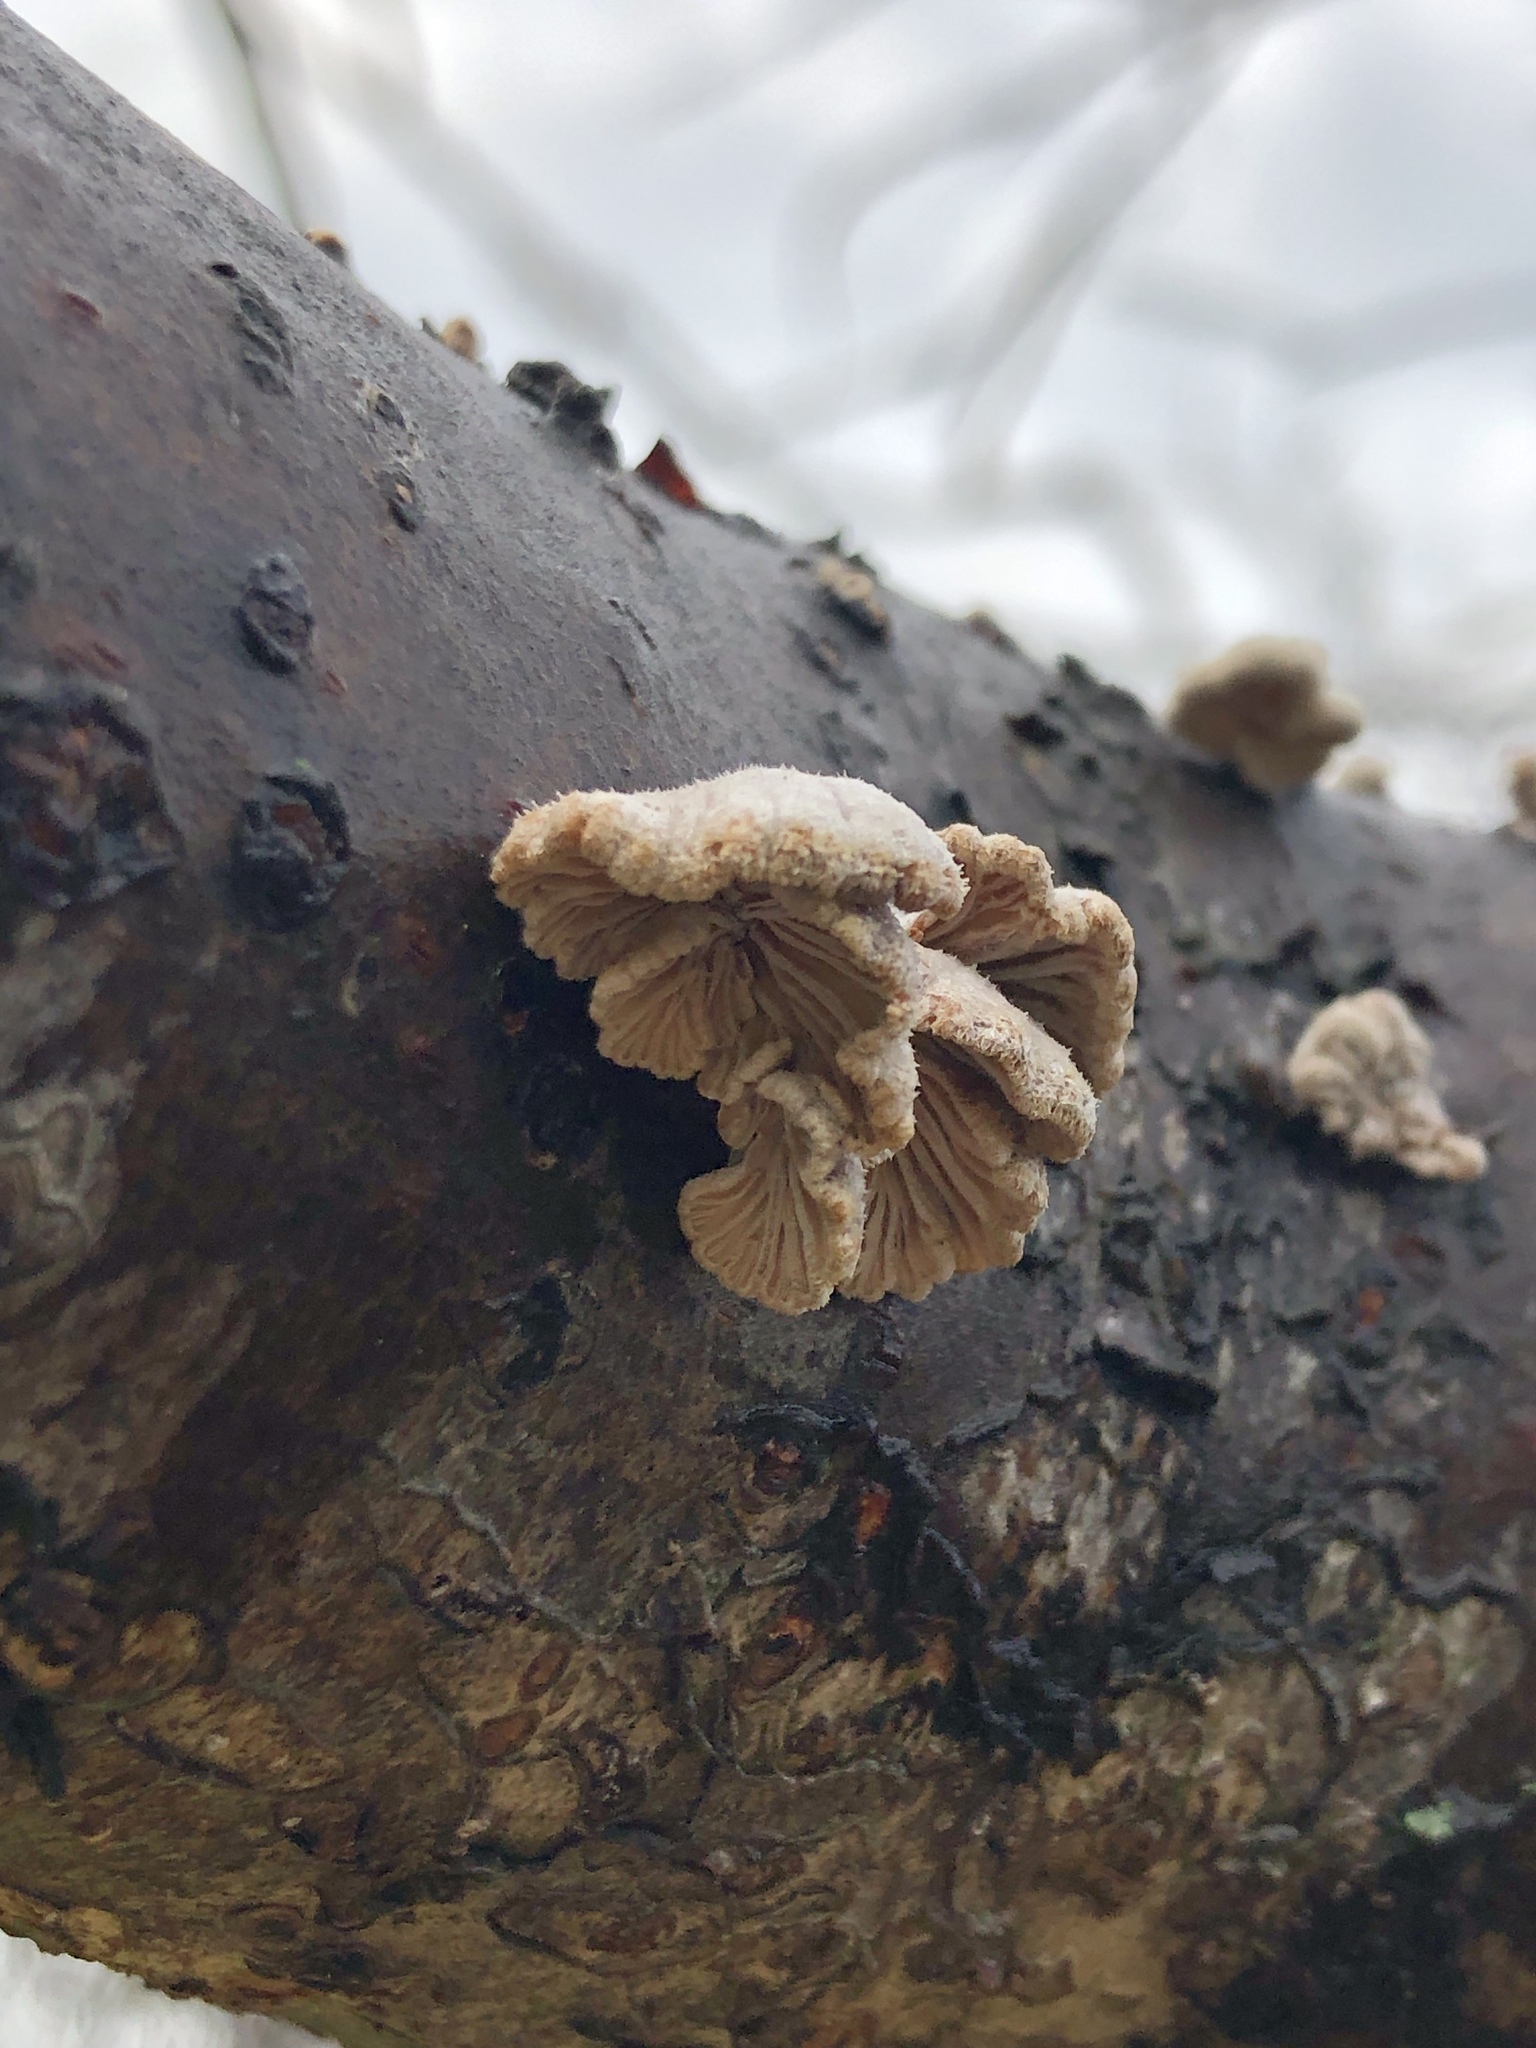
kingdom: Fungi
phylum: Basidiomycota
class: Agaricomycetes
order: Agaricales
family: Schizophyllaceae
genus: Schizophyllum
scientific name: Schizophyllum commune
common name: Common porecrust
